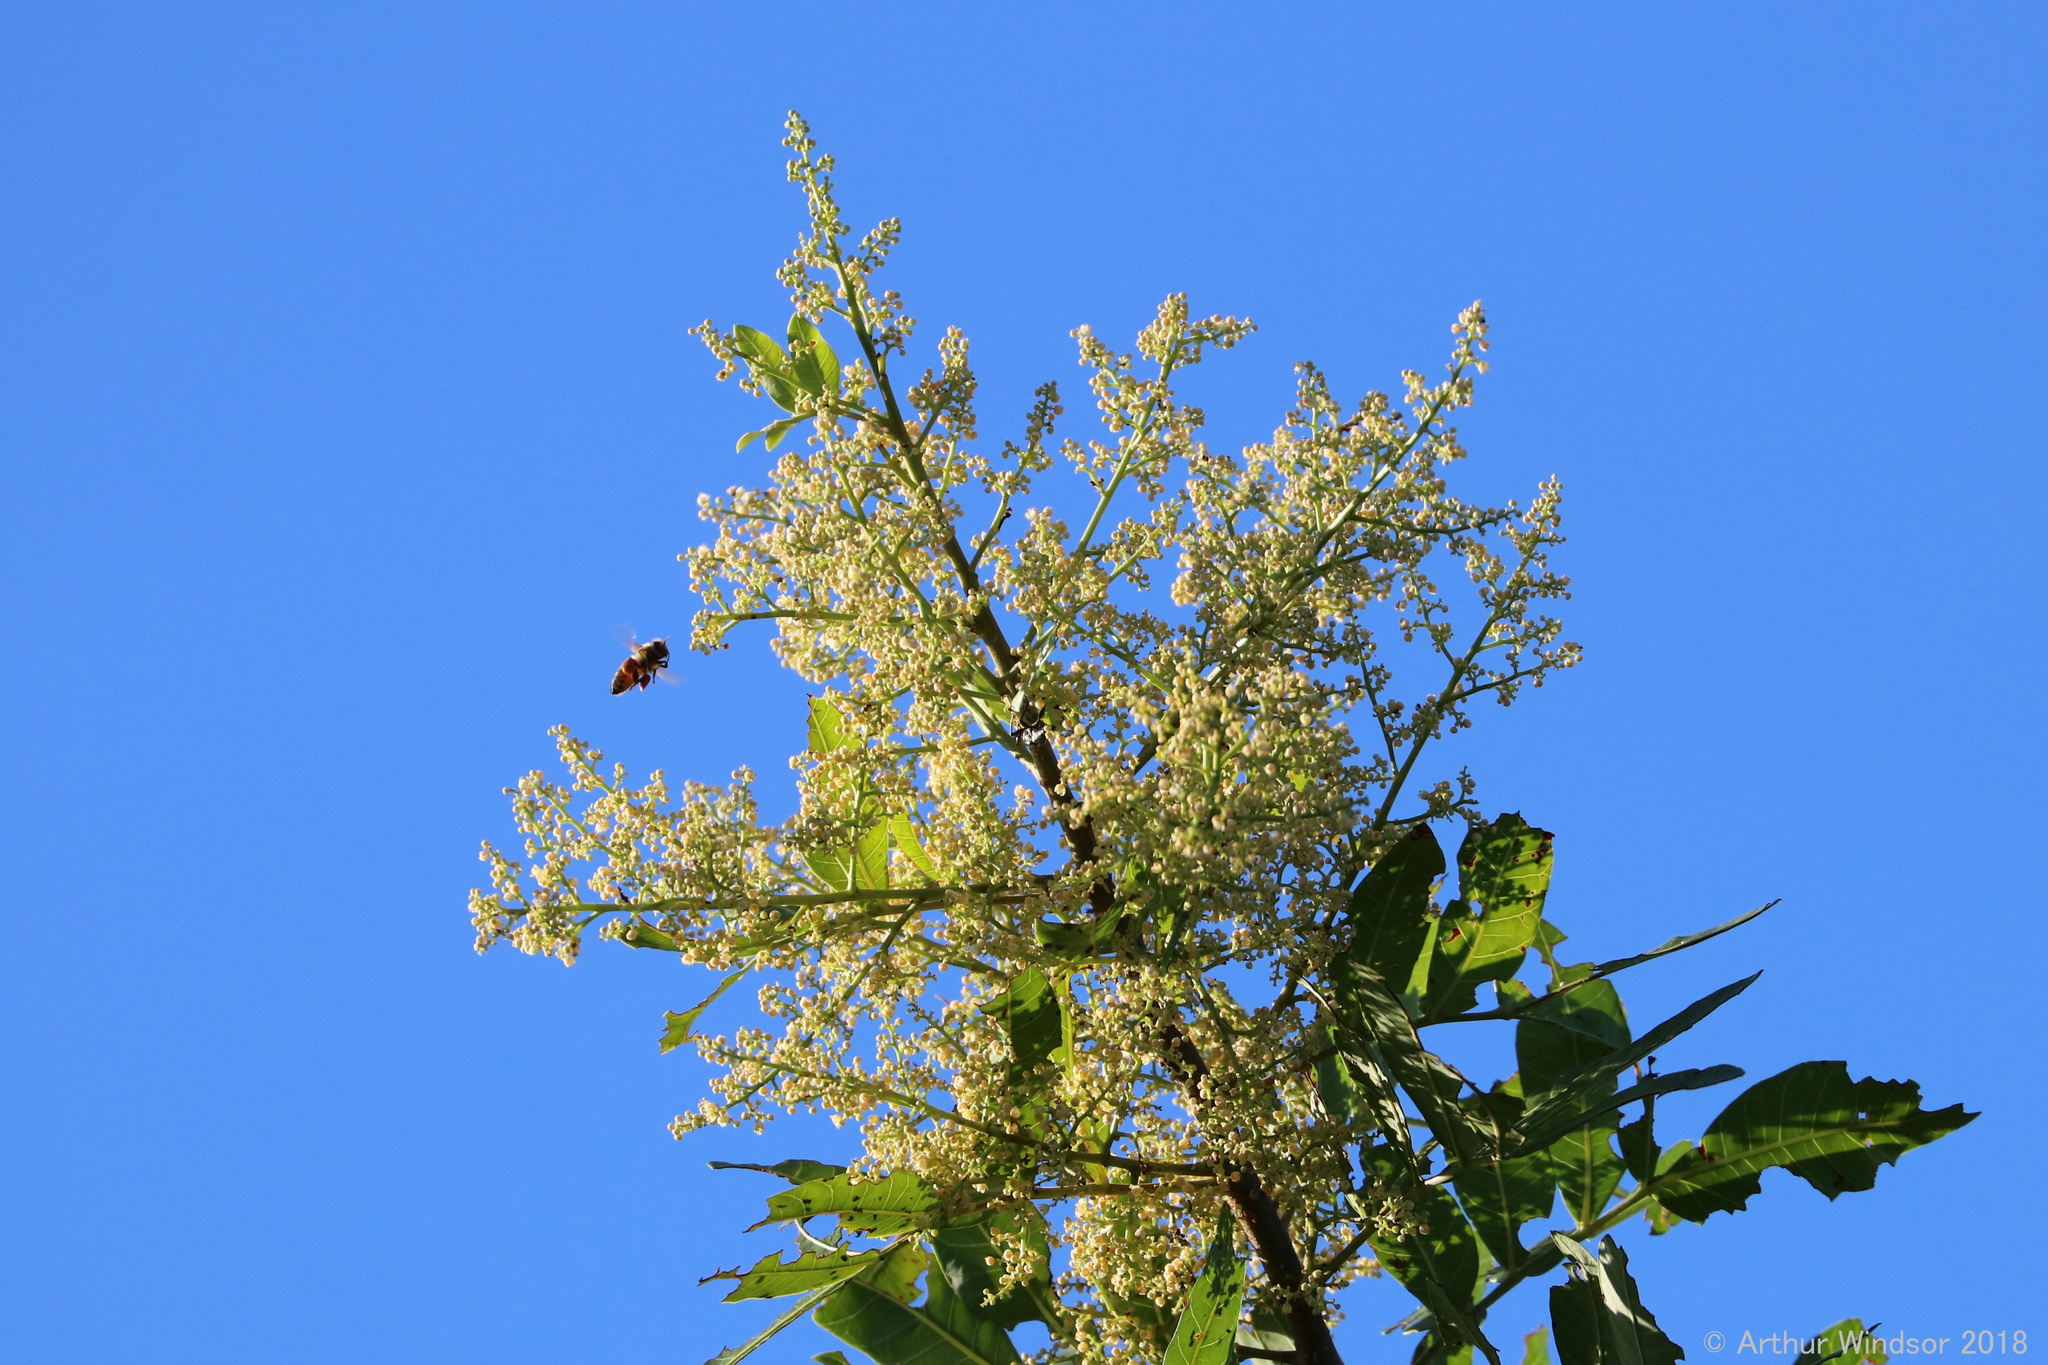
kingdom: Animalia
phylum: Arthropoda
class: Insecta
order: Hymenoptera
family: Apidae
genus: Apis
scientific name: Apis mellifera
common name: Honey bee
